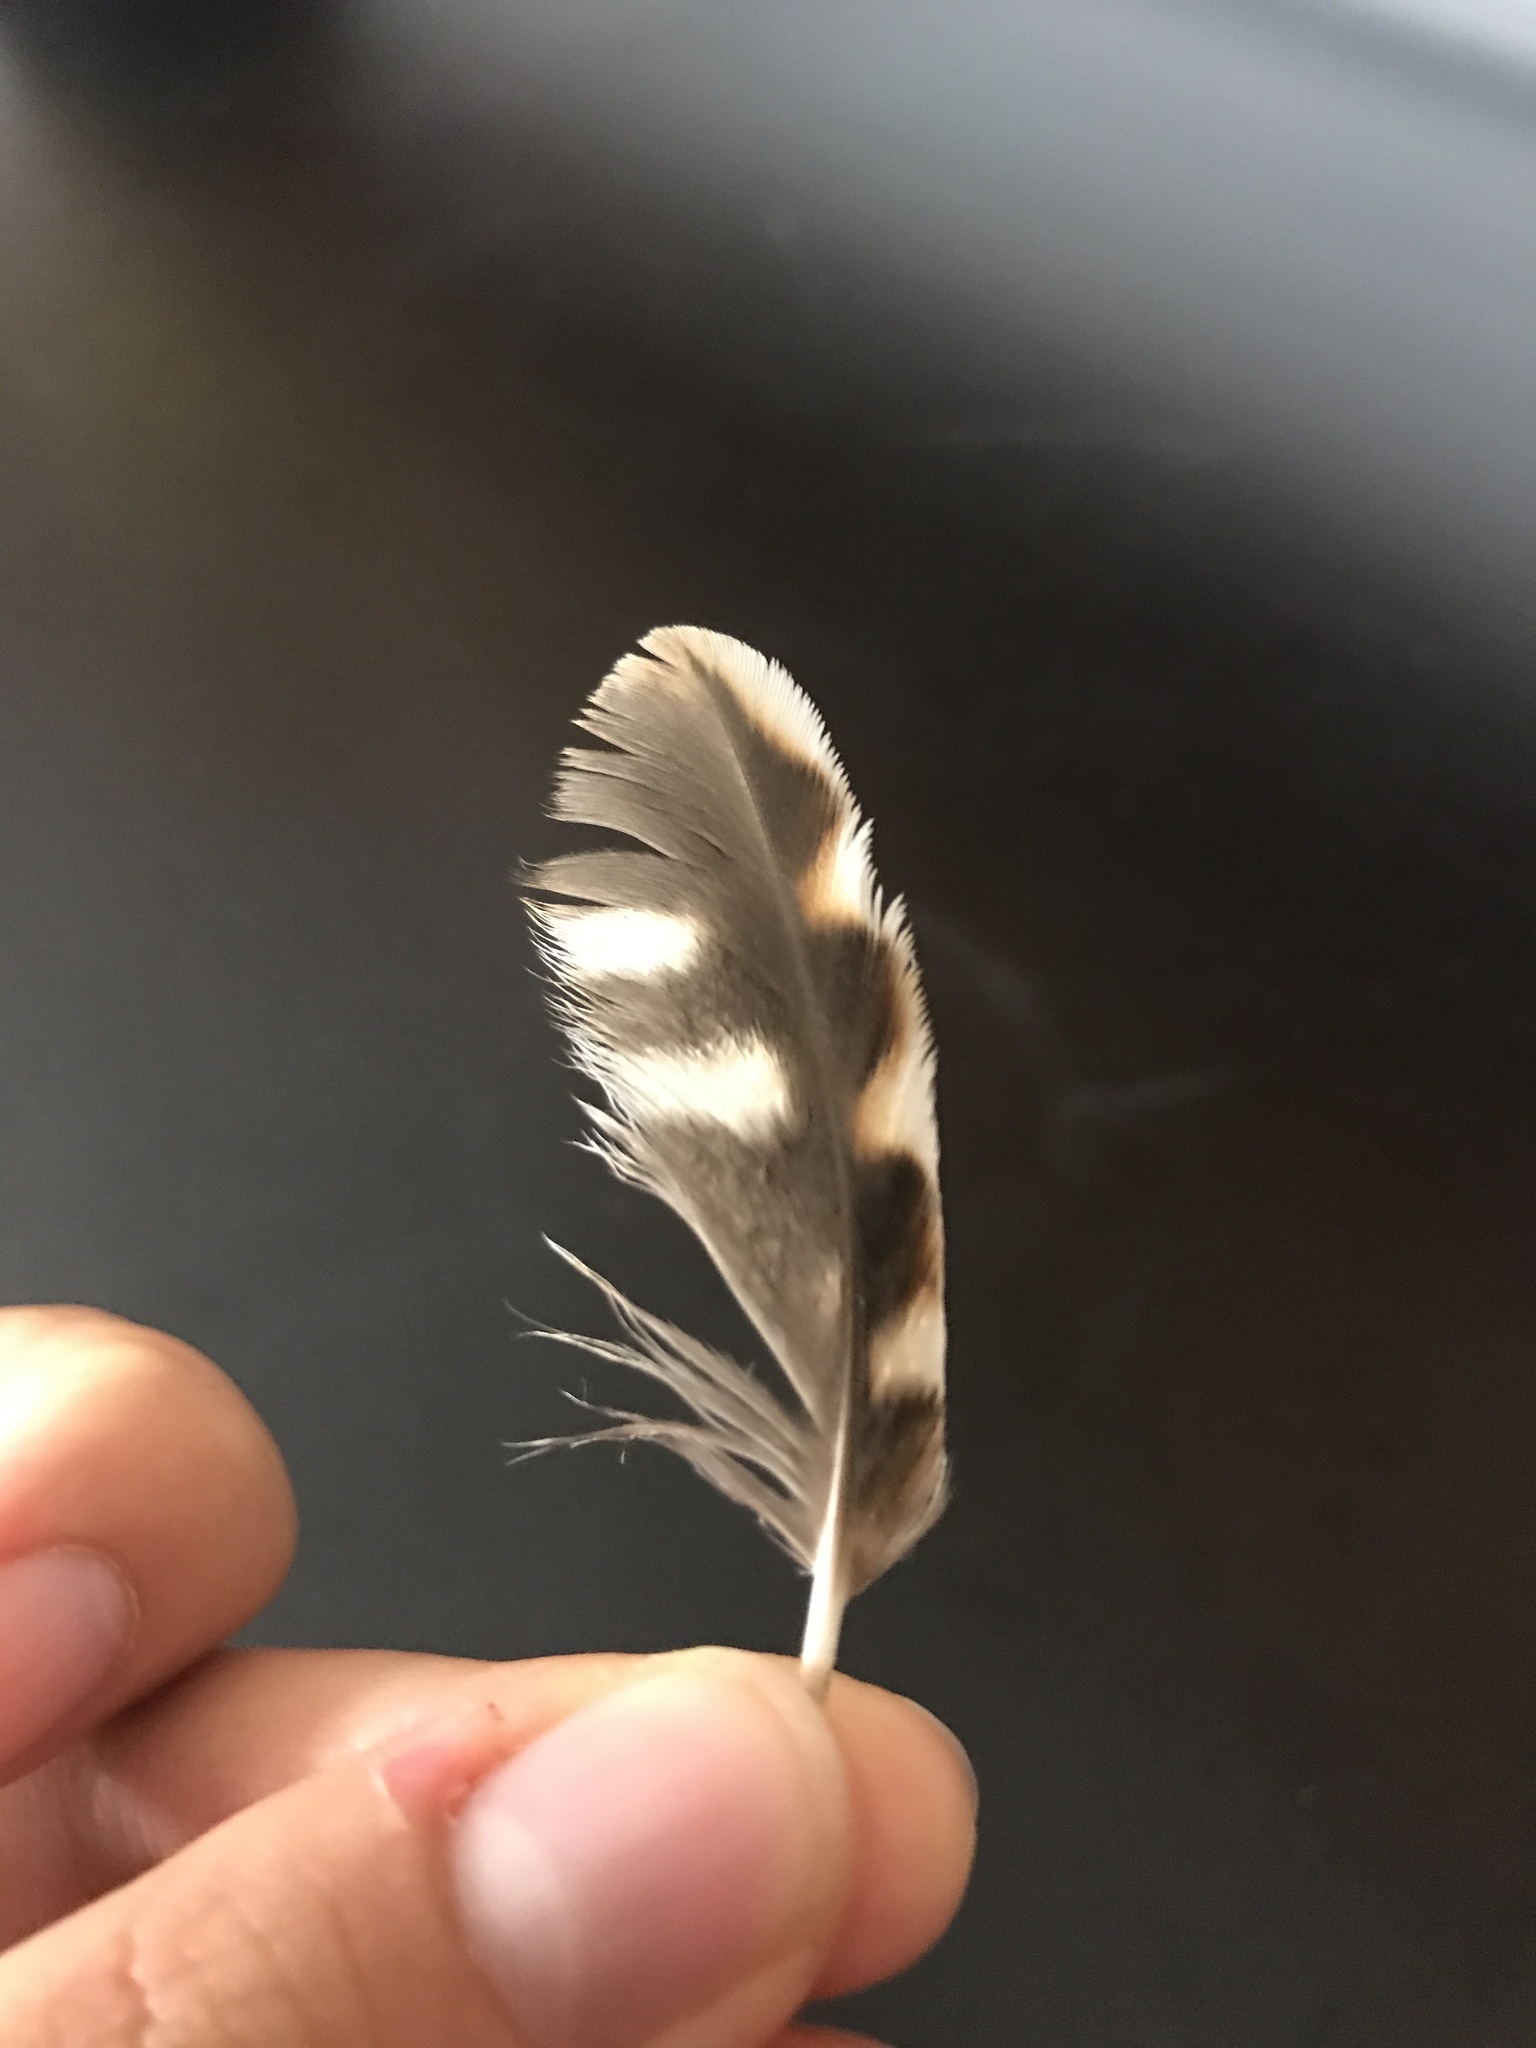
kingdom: Animalia
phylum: Chordata
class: Aves
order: Strigiformes
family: Strigidae
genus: Megascops
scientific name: Megascops asio
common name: Eastern screech-owl
